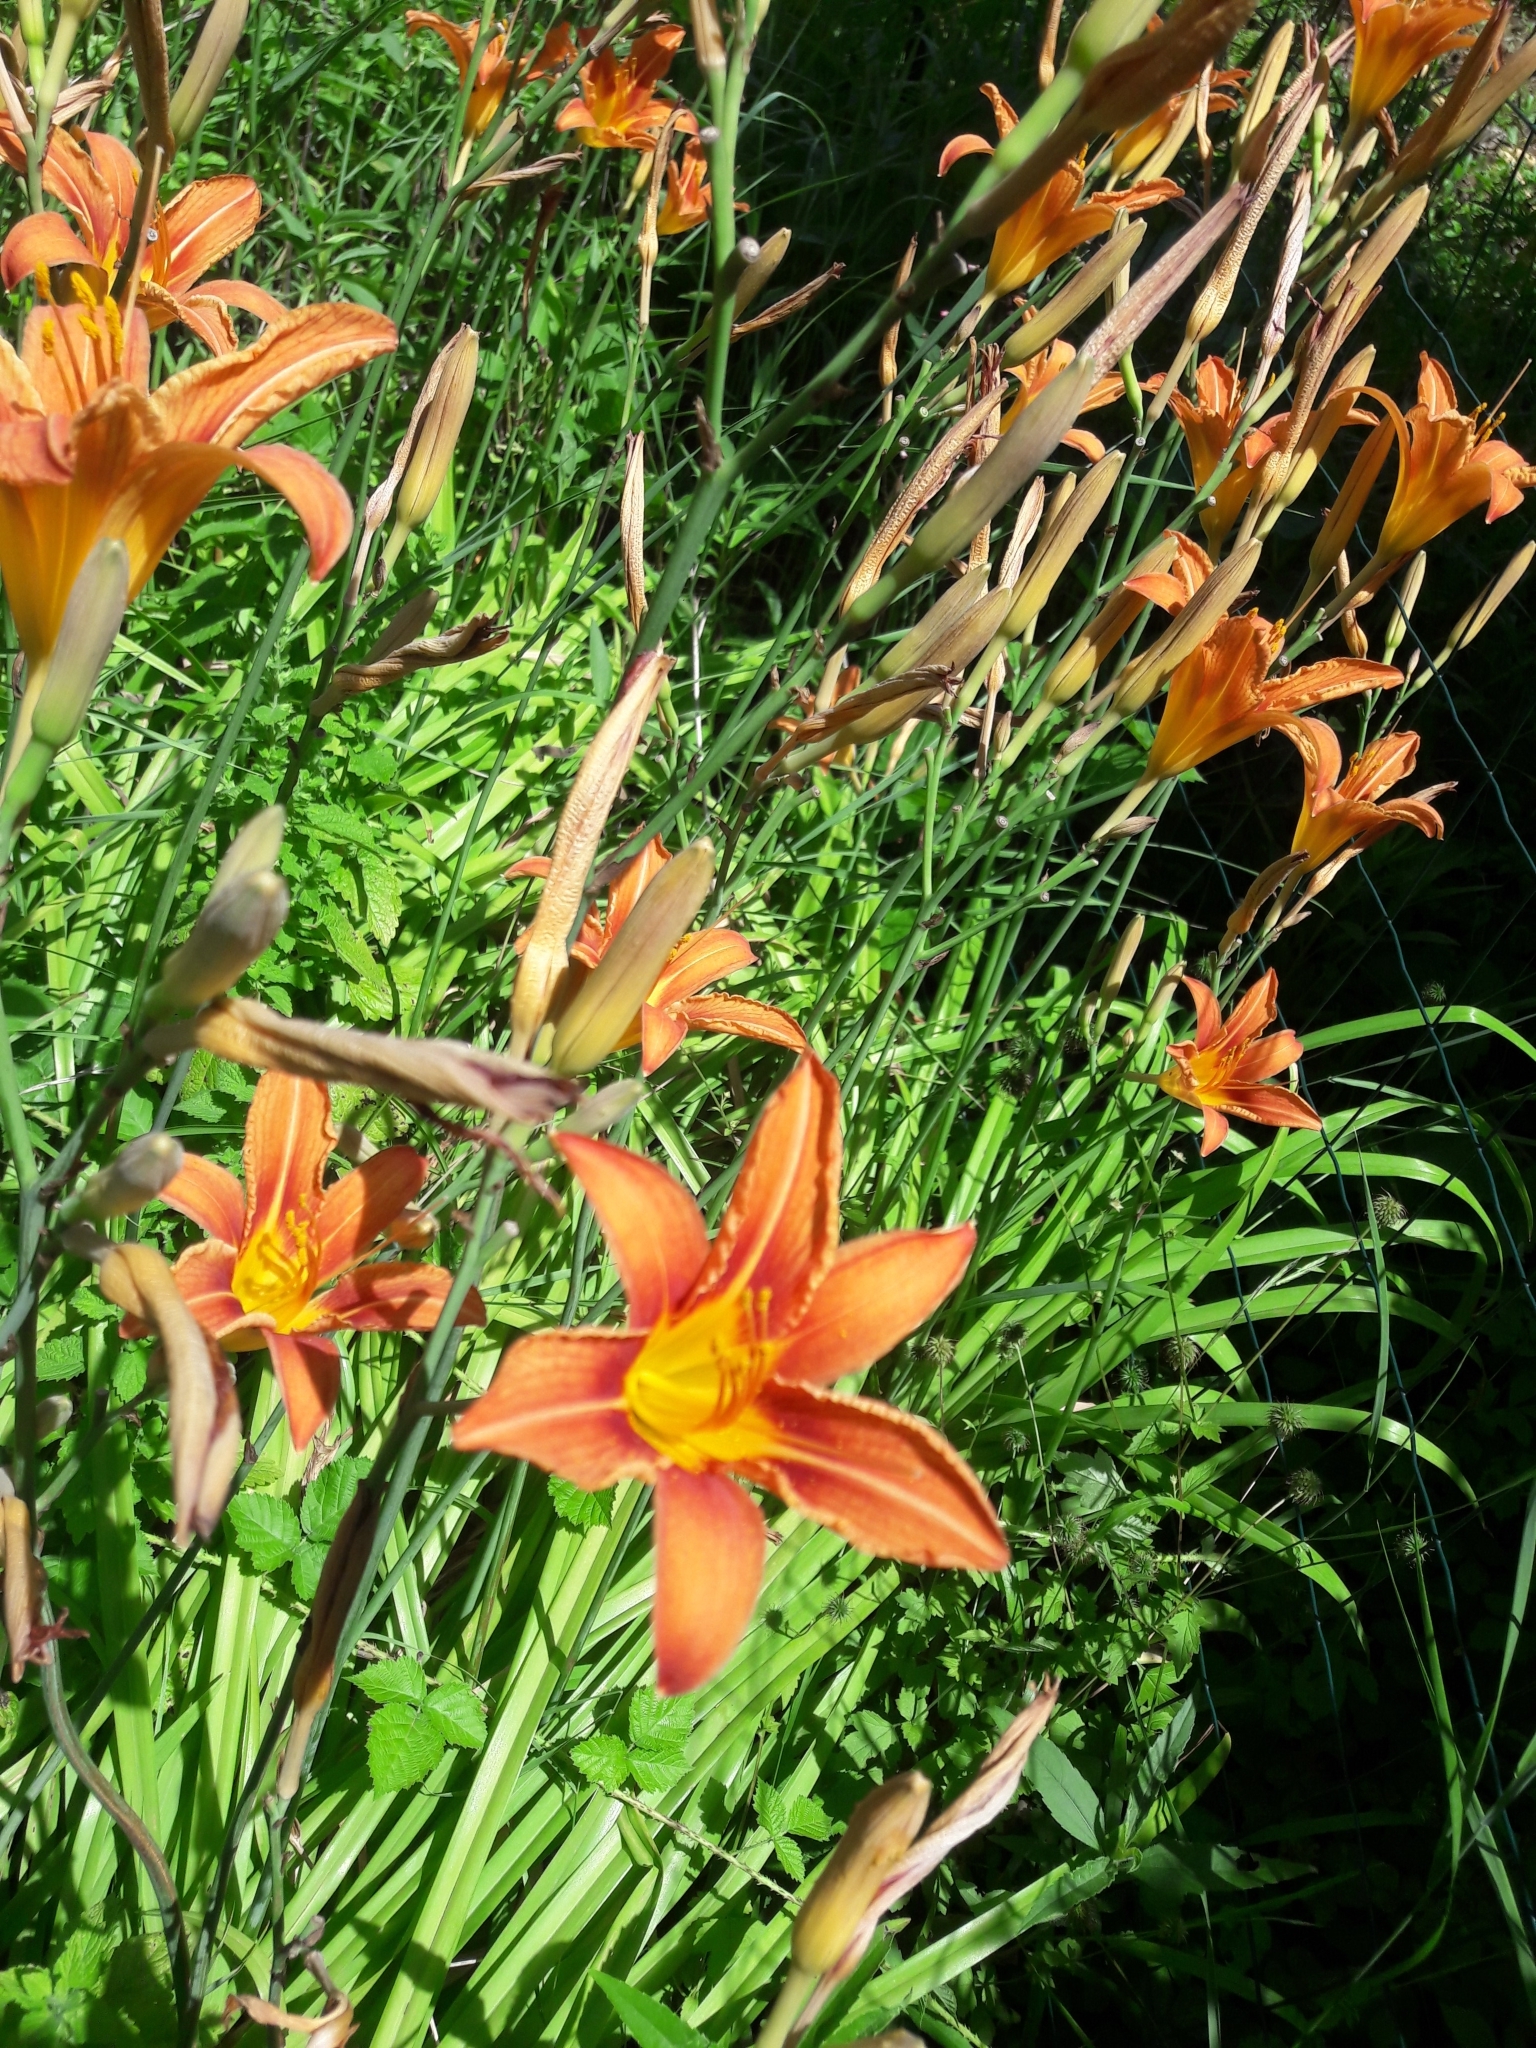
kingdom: Plantae
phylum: Tracheophyta
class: Liliopsida
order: Asparagales
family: Asphodelaceae
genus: Hemerocallis
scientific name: Hemerocallis fulva
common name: Orange day-lily
